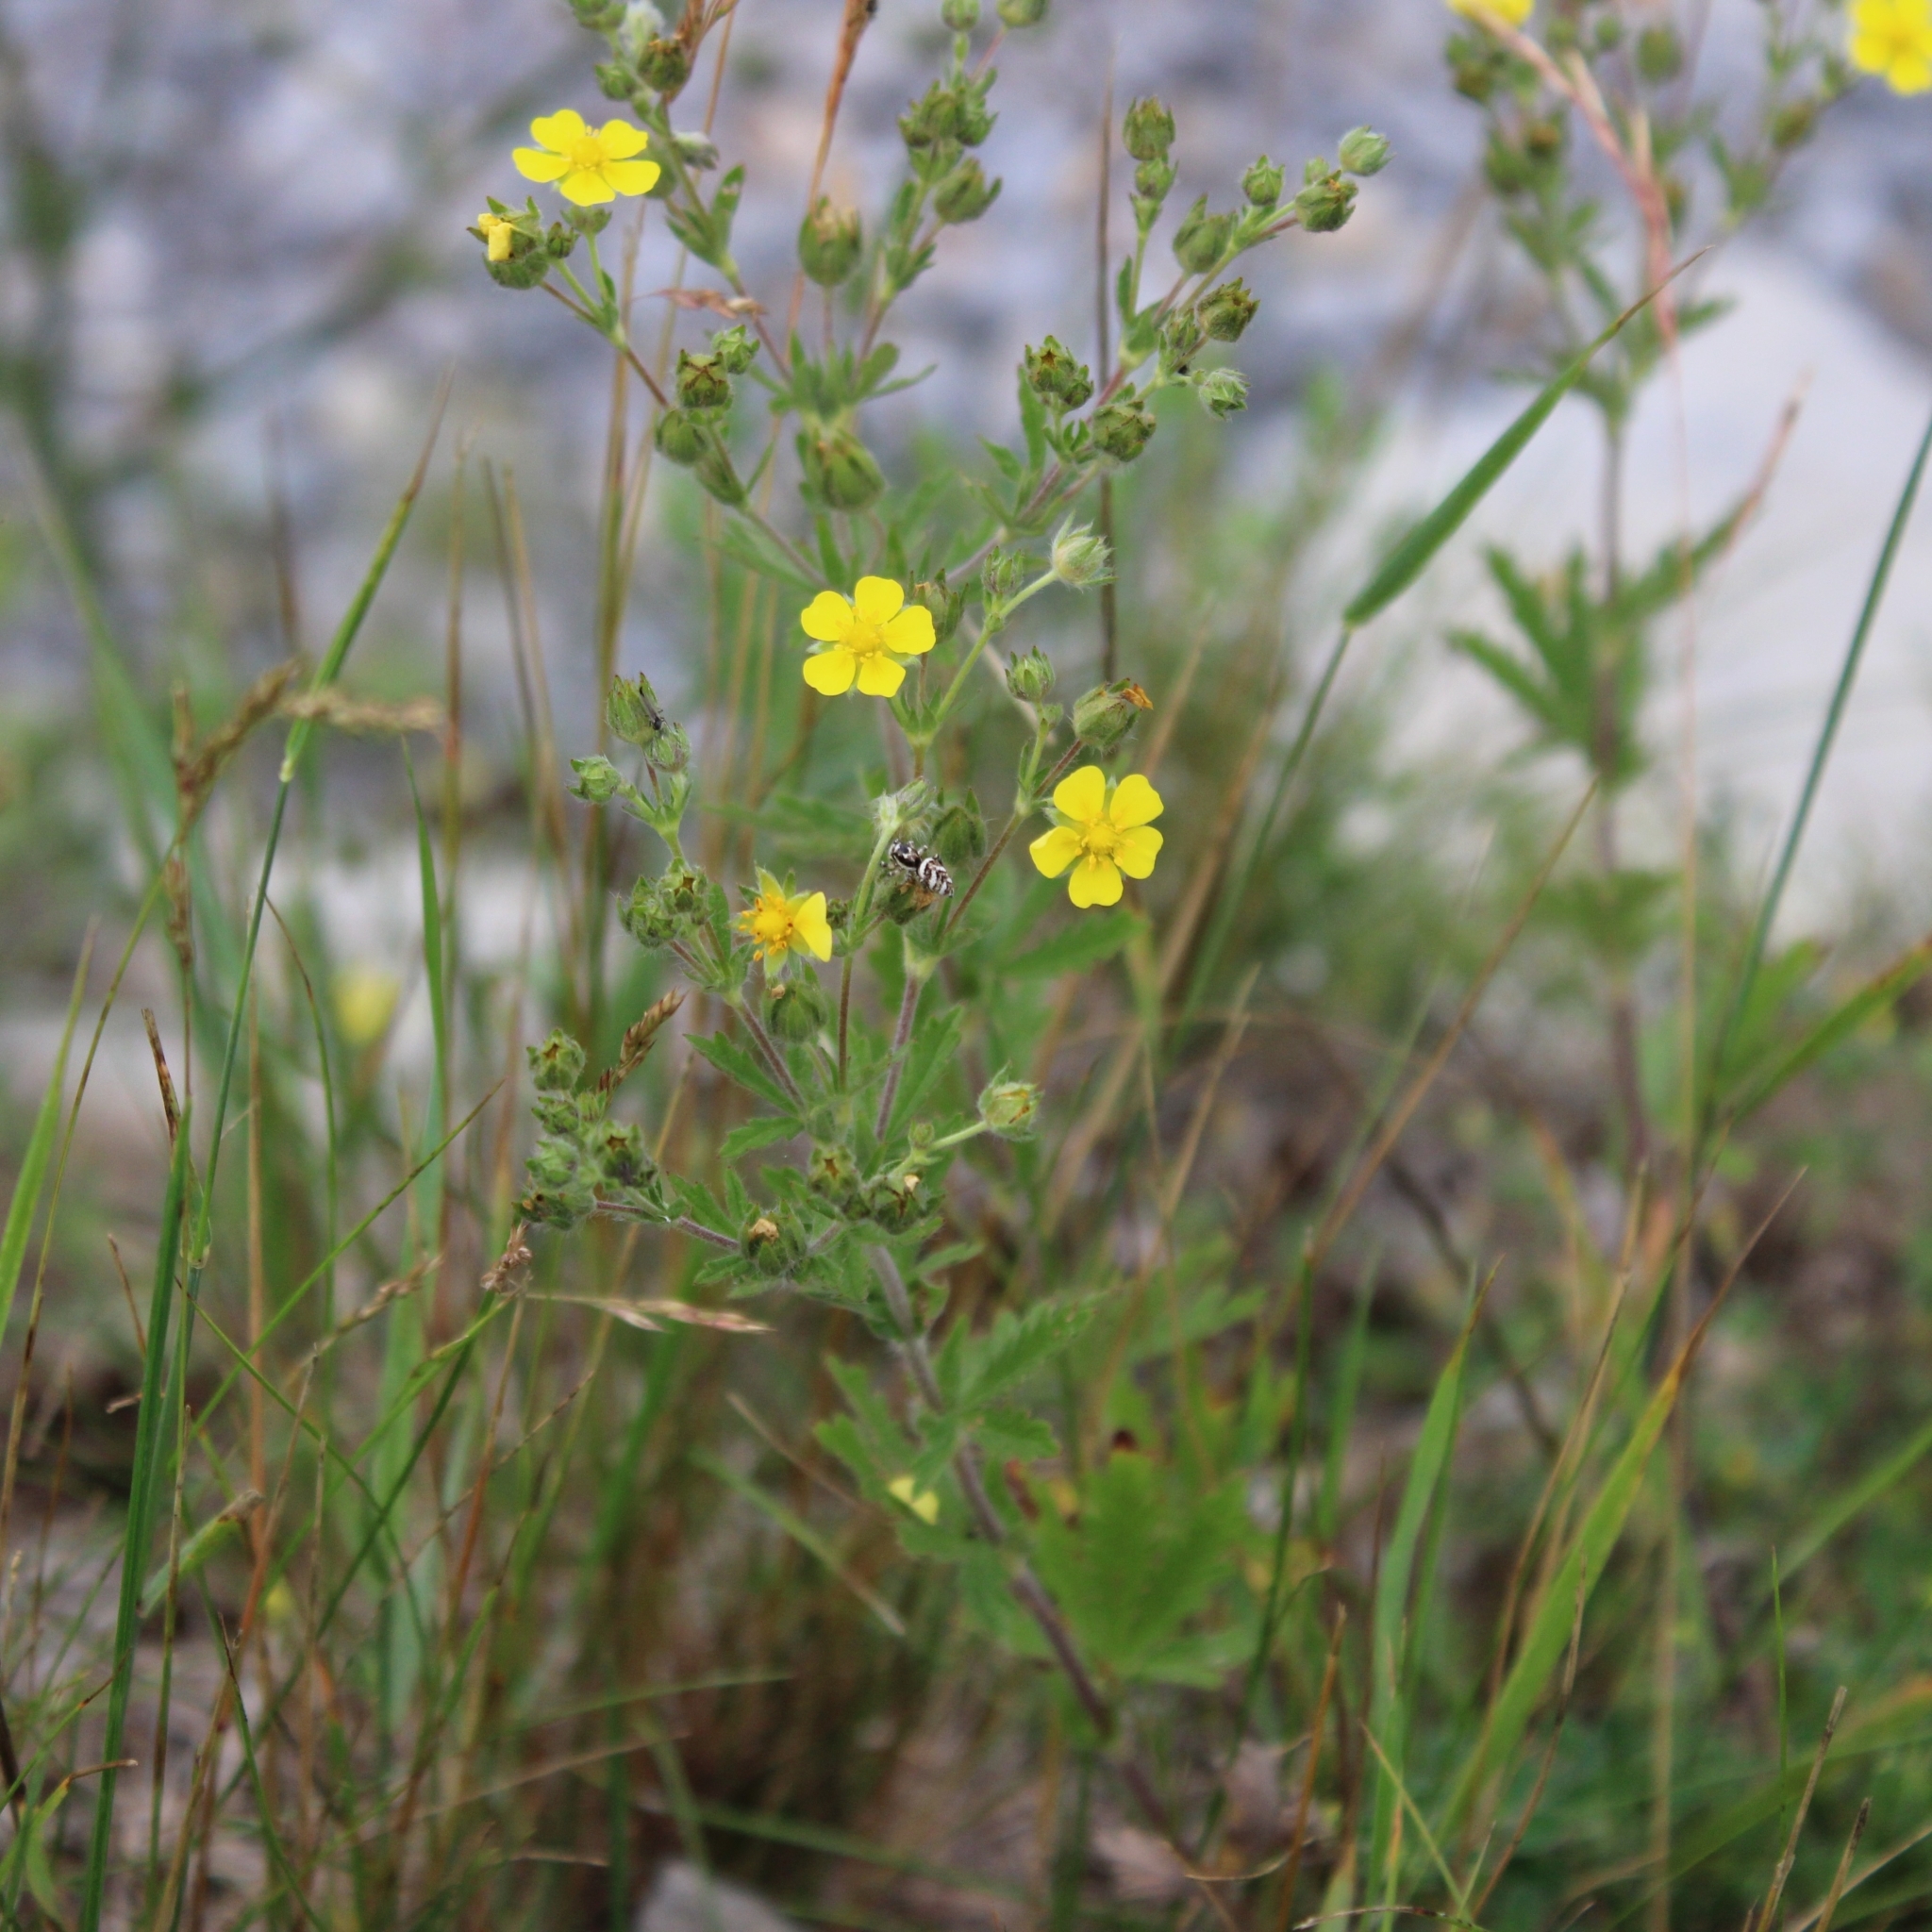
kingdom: Plantae
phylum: Tracheophyta
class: Magnoliopsida
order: Rosales
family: Rosaceae
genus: Potentilla
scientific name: Potentilla argentea
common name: Hoary cinquefoil
